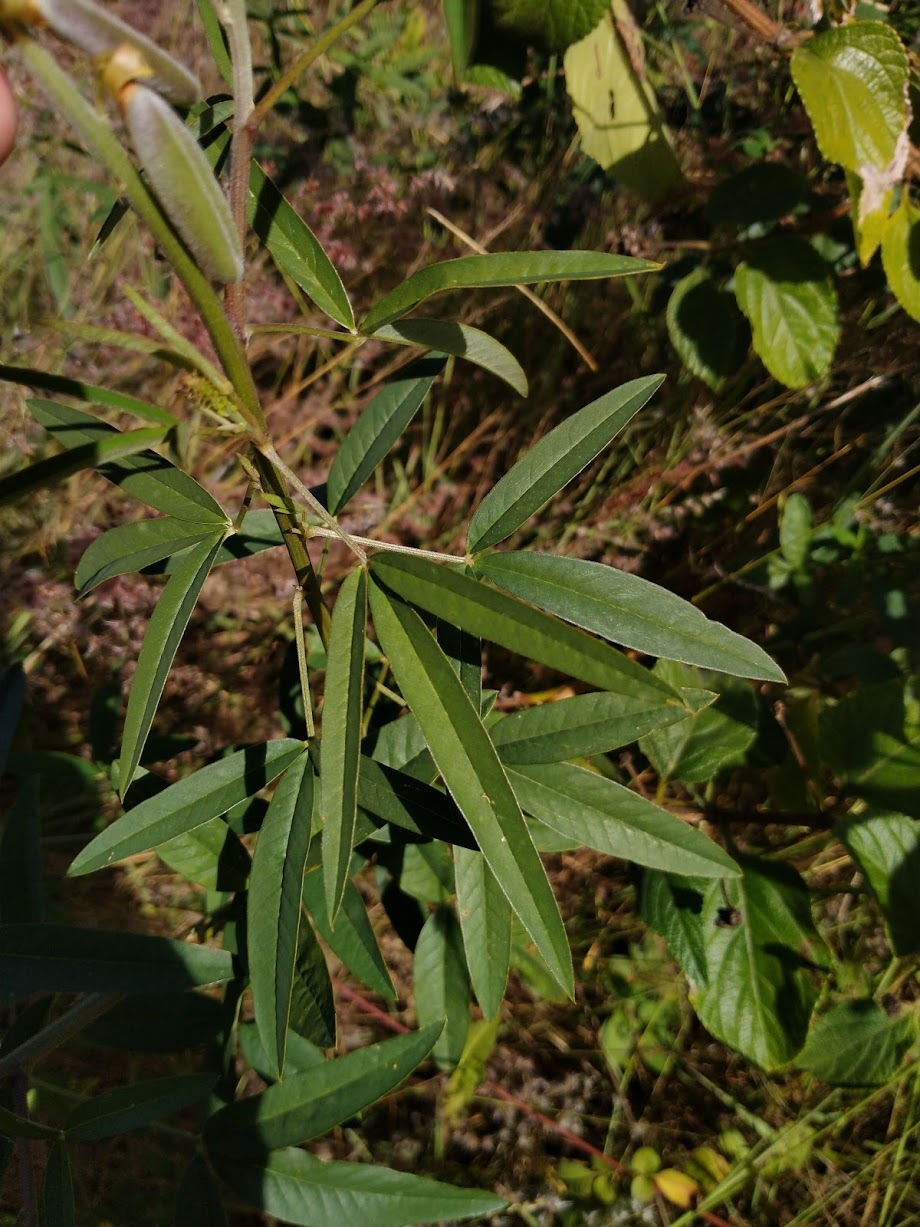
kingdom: Plantae
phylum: Tracheophyta
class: Magnoliopsida
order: Fabales
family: Fabaceae
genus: Crotalaria
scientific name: Crotalaria lanceolata
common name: Lanceleaf rattlebox
